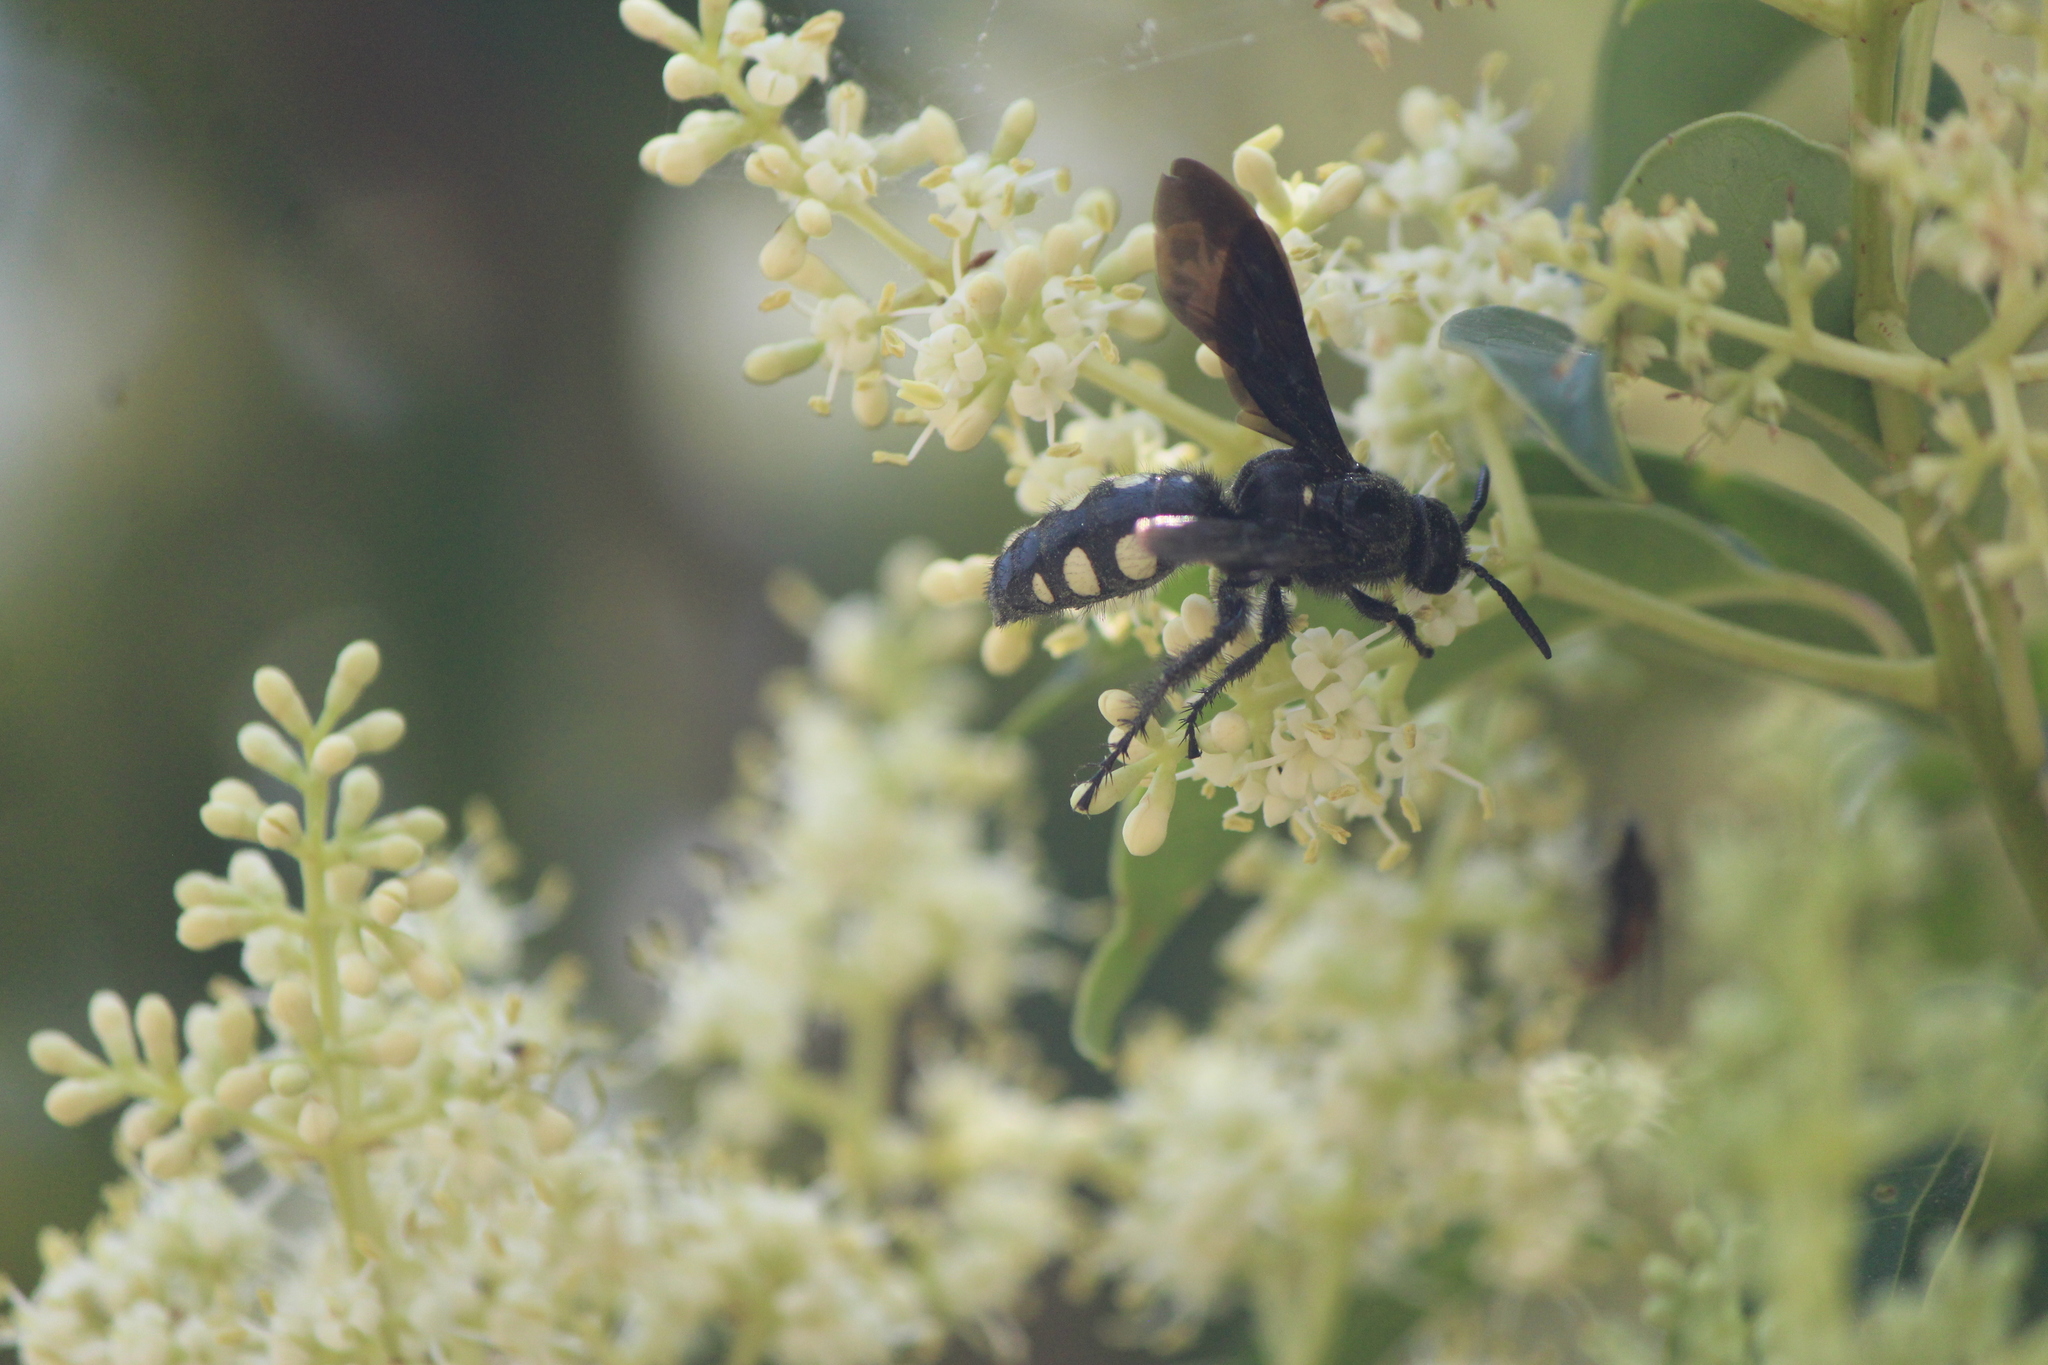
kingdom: Animalia
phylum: Arthropoda
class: Insecta
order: Hymenoptera
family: Scoliidae
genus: Scolia
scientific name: Scolia guttata
